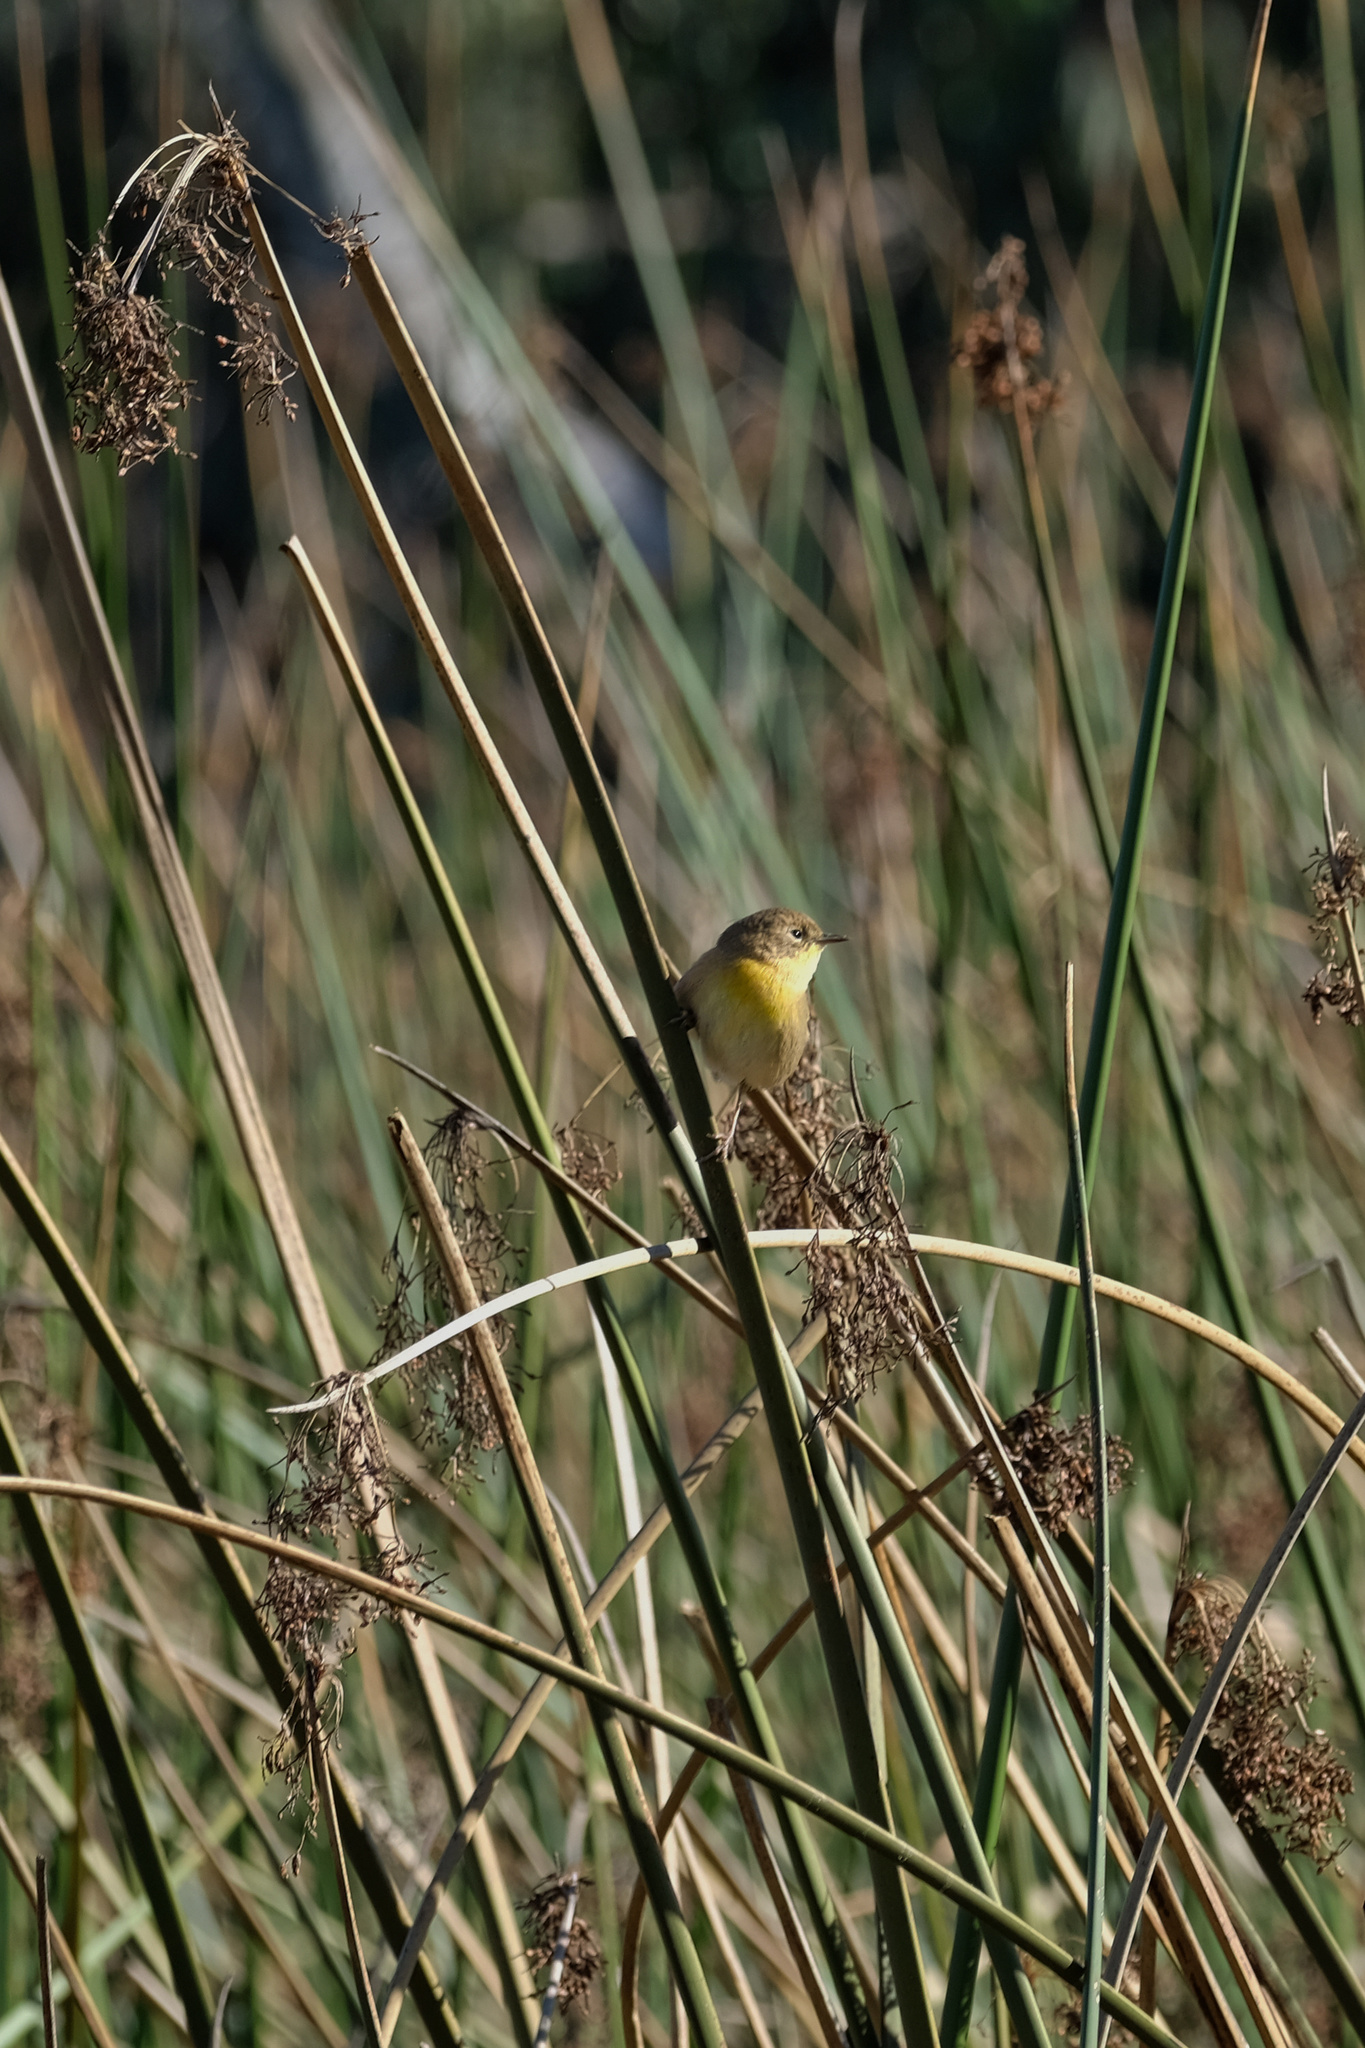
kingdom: Animalia
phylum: Chordata
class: Aves
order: Passeriformes
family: Parulidae
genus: Geothlypis
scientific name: Geothlypis trichas
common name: Common yellowthroat
